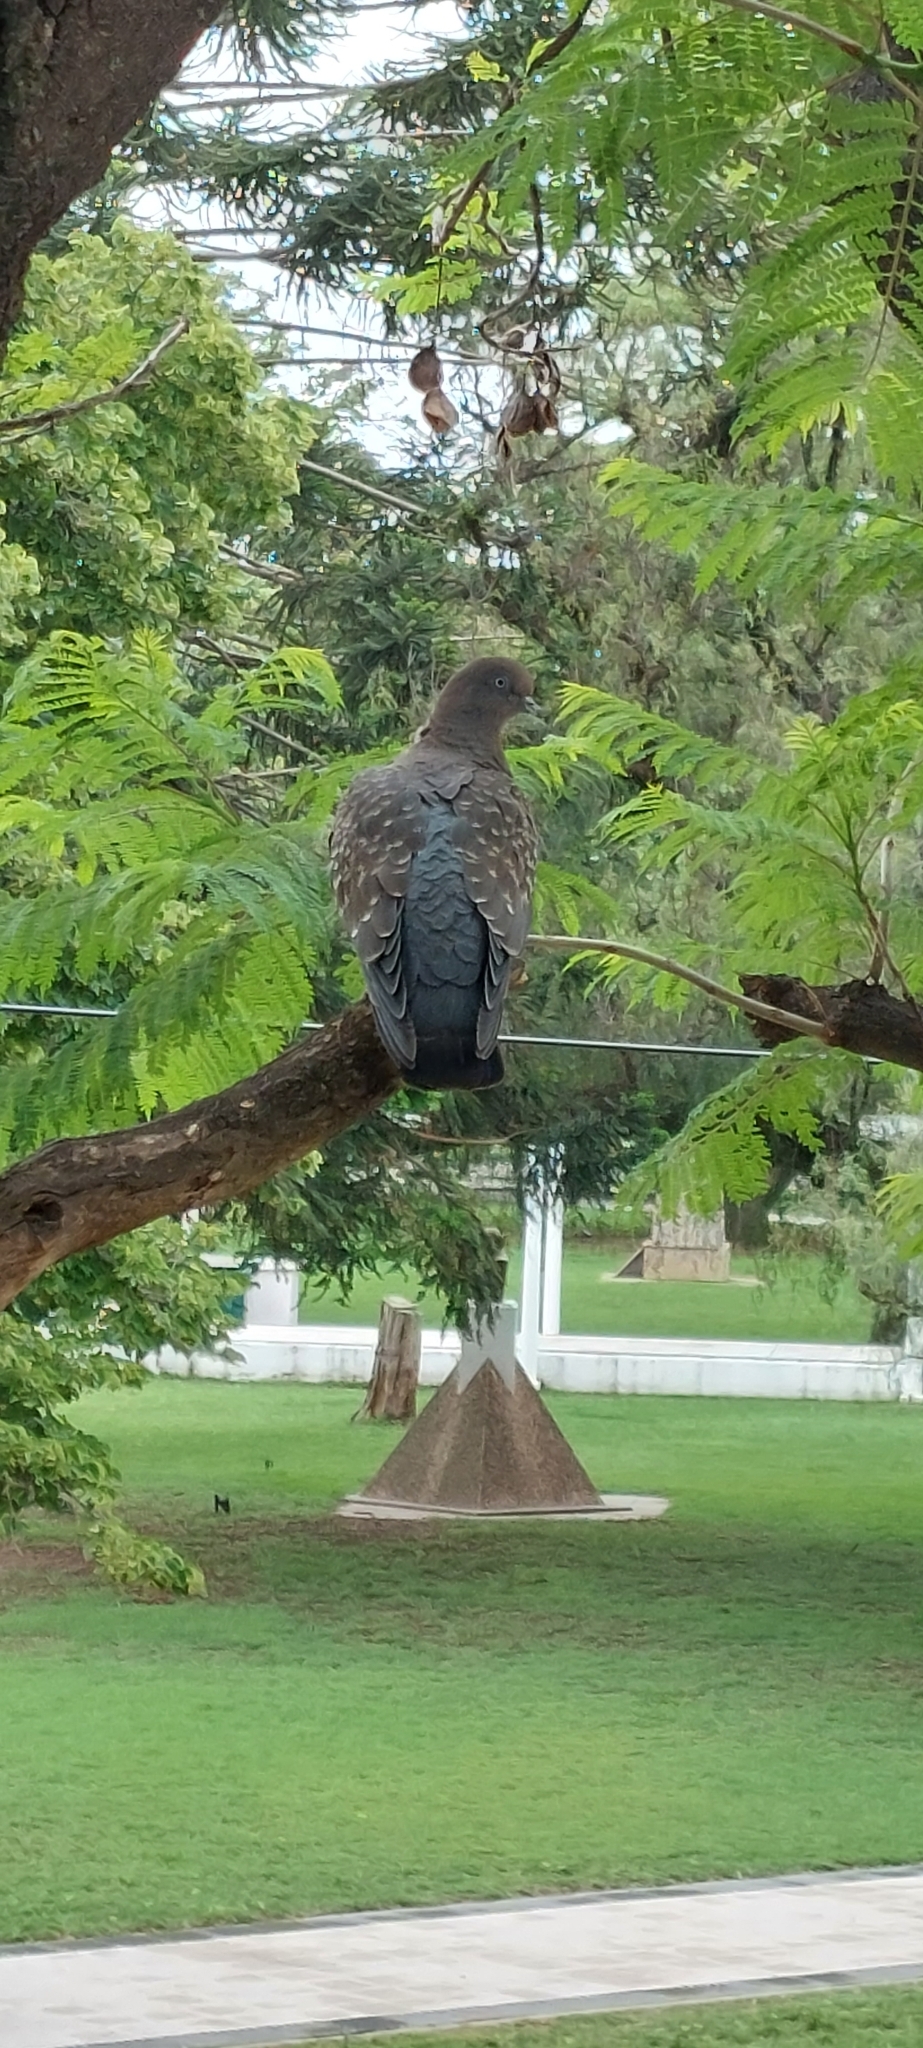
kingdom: Animalia
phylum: Chordata
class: Aves
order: Columbiformes
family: Columbidae
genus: Patagioenas
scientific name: Patagioenas maculosa
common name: Spot-winged pigeon
